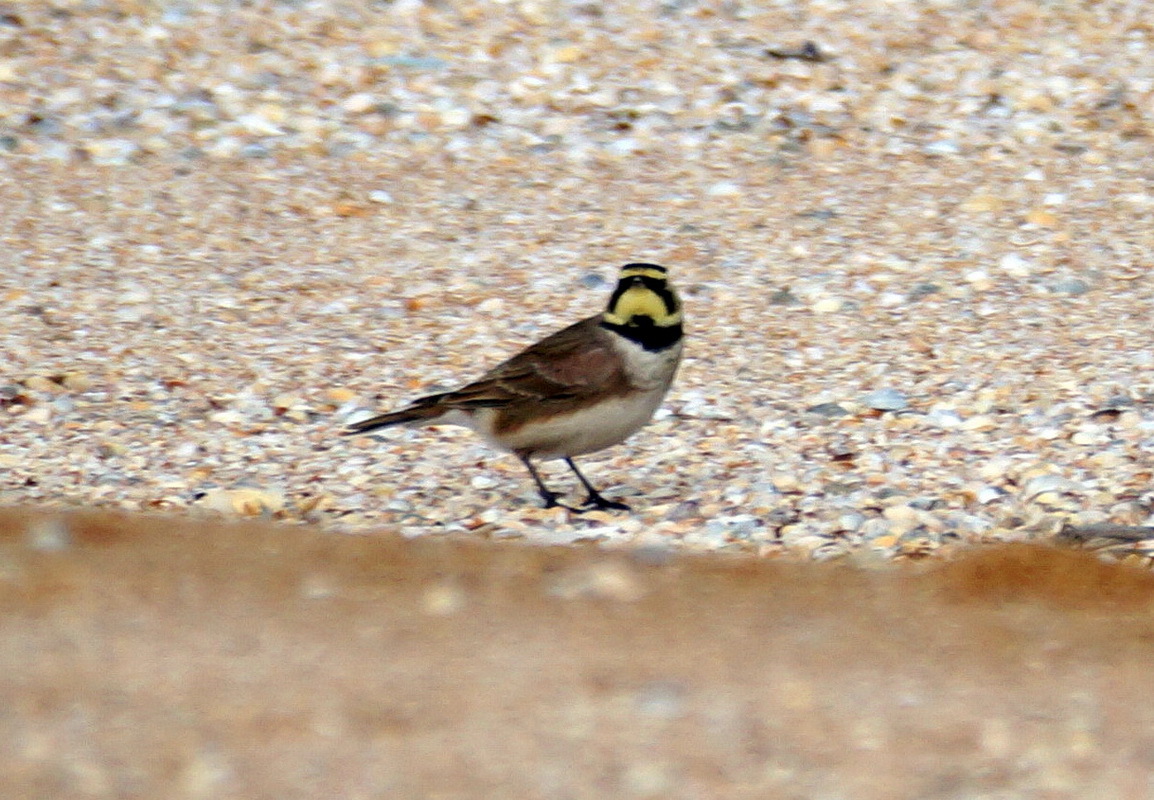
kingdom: Animalia
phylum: Chordata
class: Aves
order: Passeriformes
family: Alaudidae
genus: Eremophila
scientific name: Eremophila alpestris
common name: Horned lark
